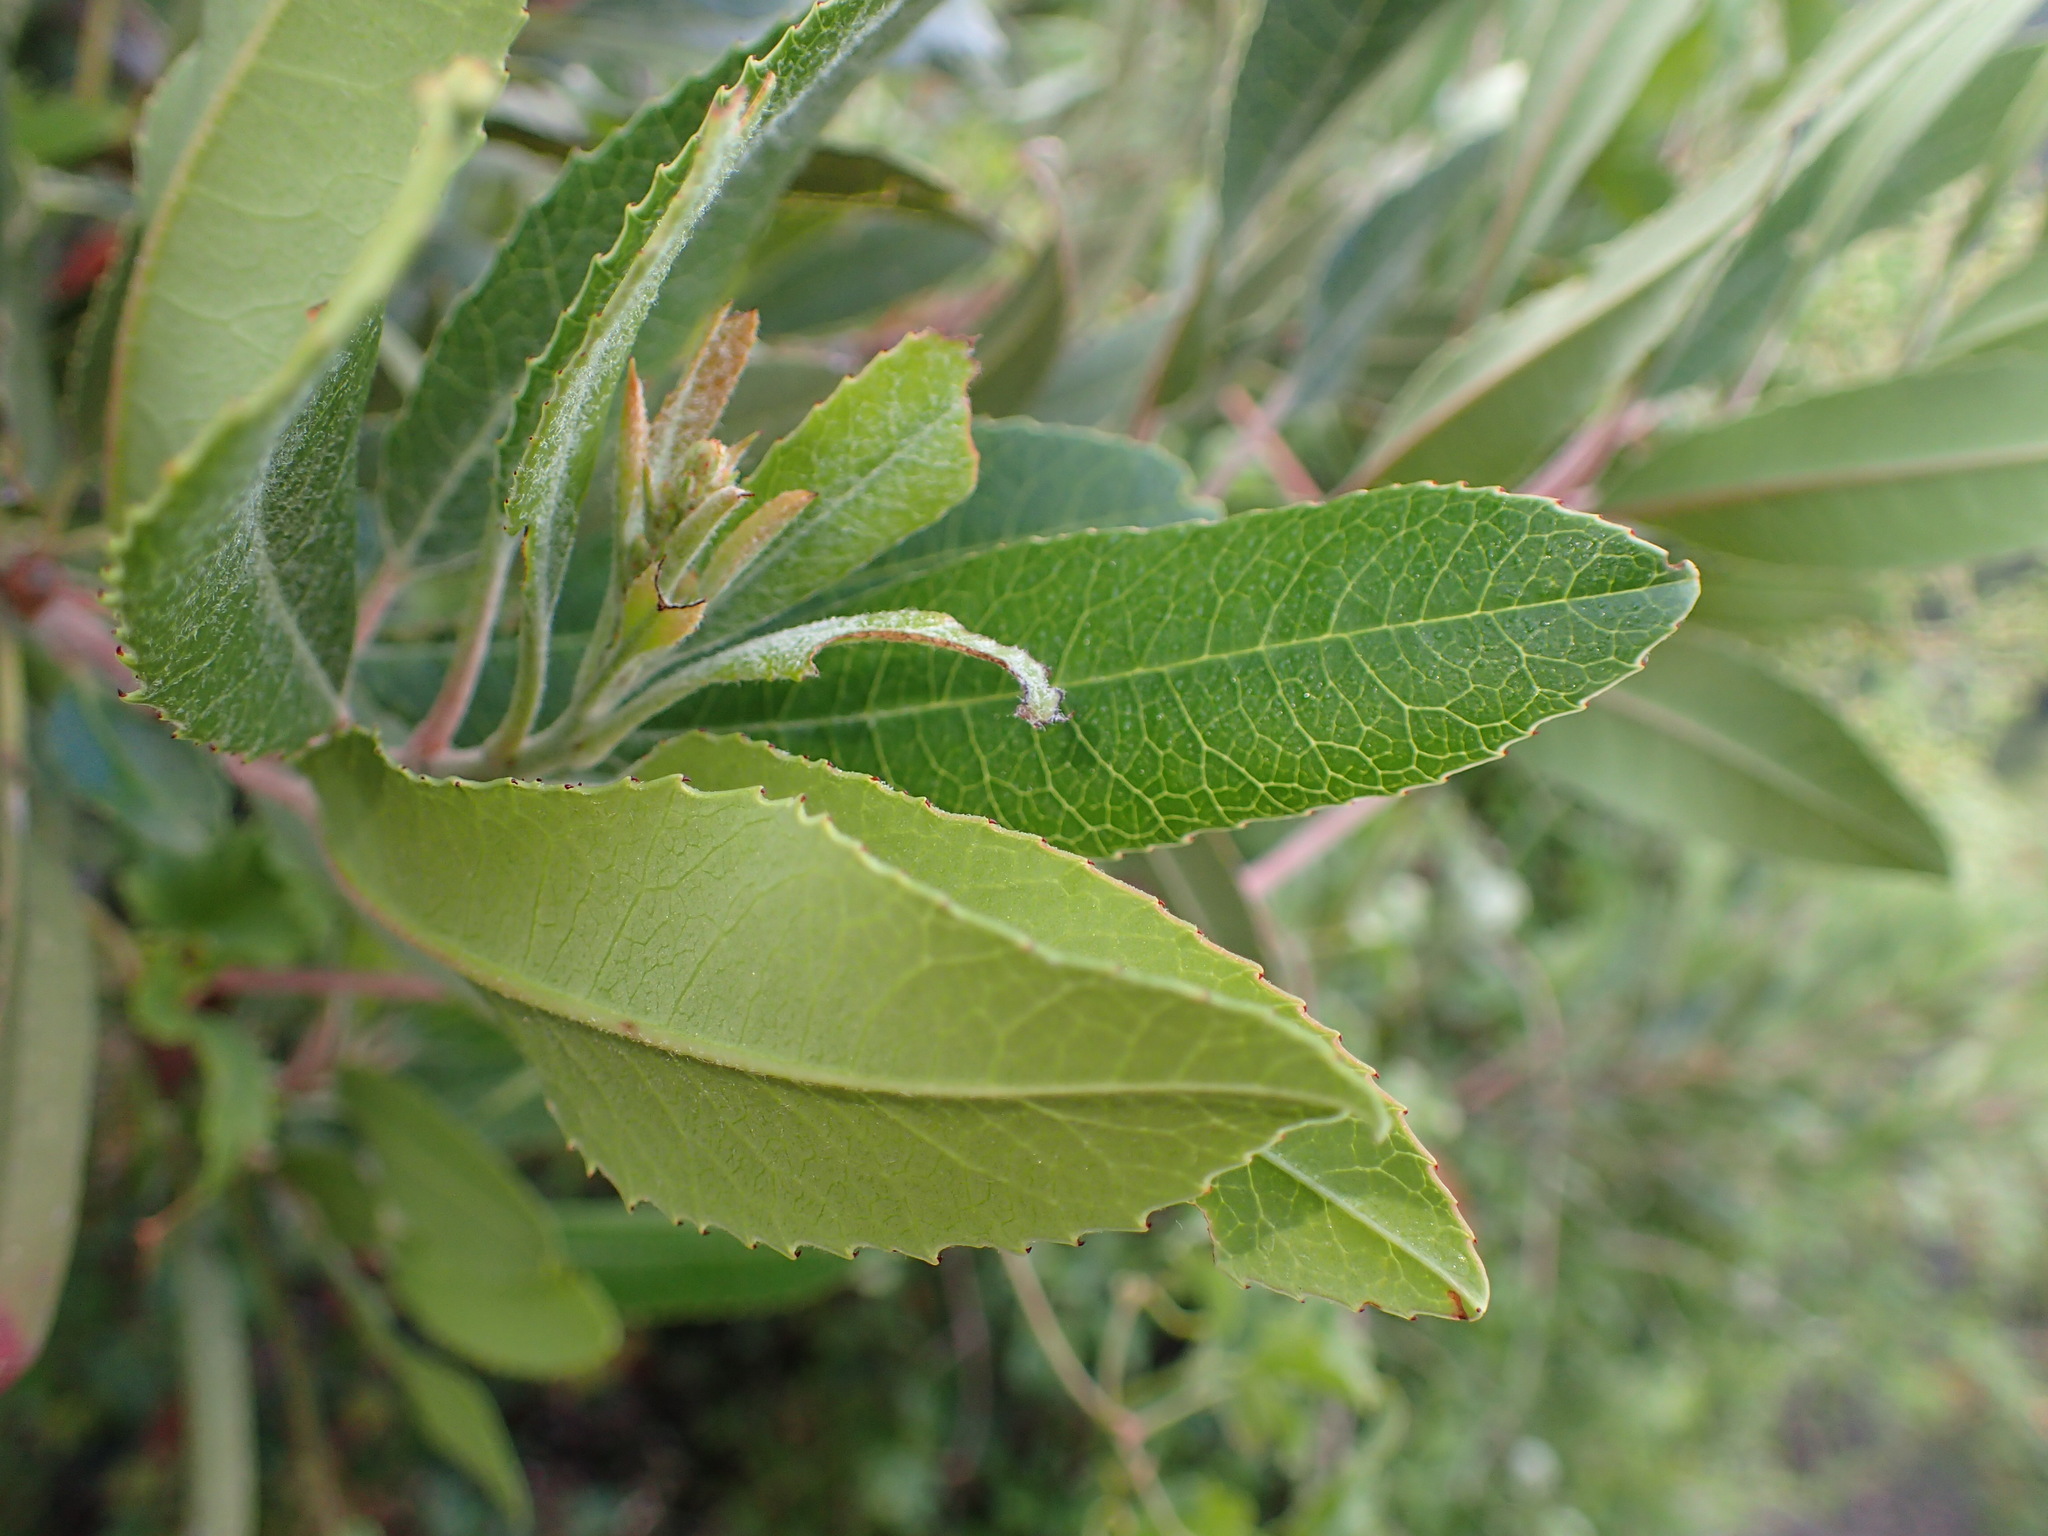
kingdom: Plantae
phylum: Tracheophyta
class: Magnoliopsida
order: Rosales
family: Rosaceae
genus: Heteromeles
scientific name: Heteromeles arbutifolia
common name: California-holly
